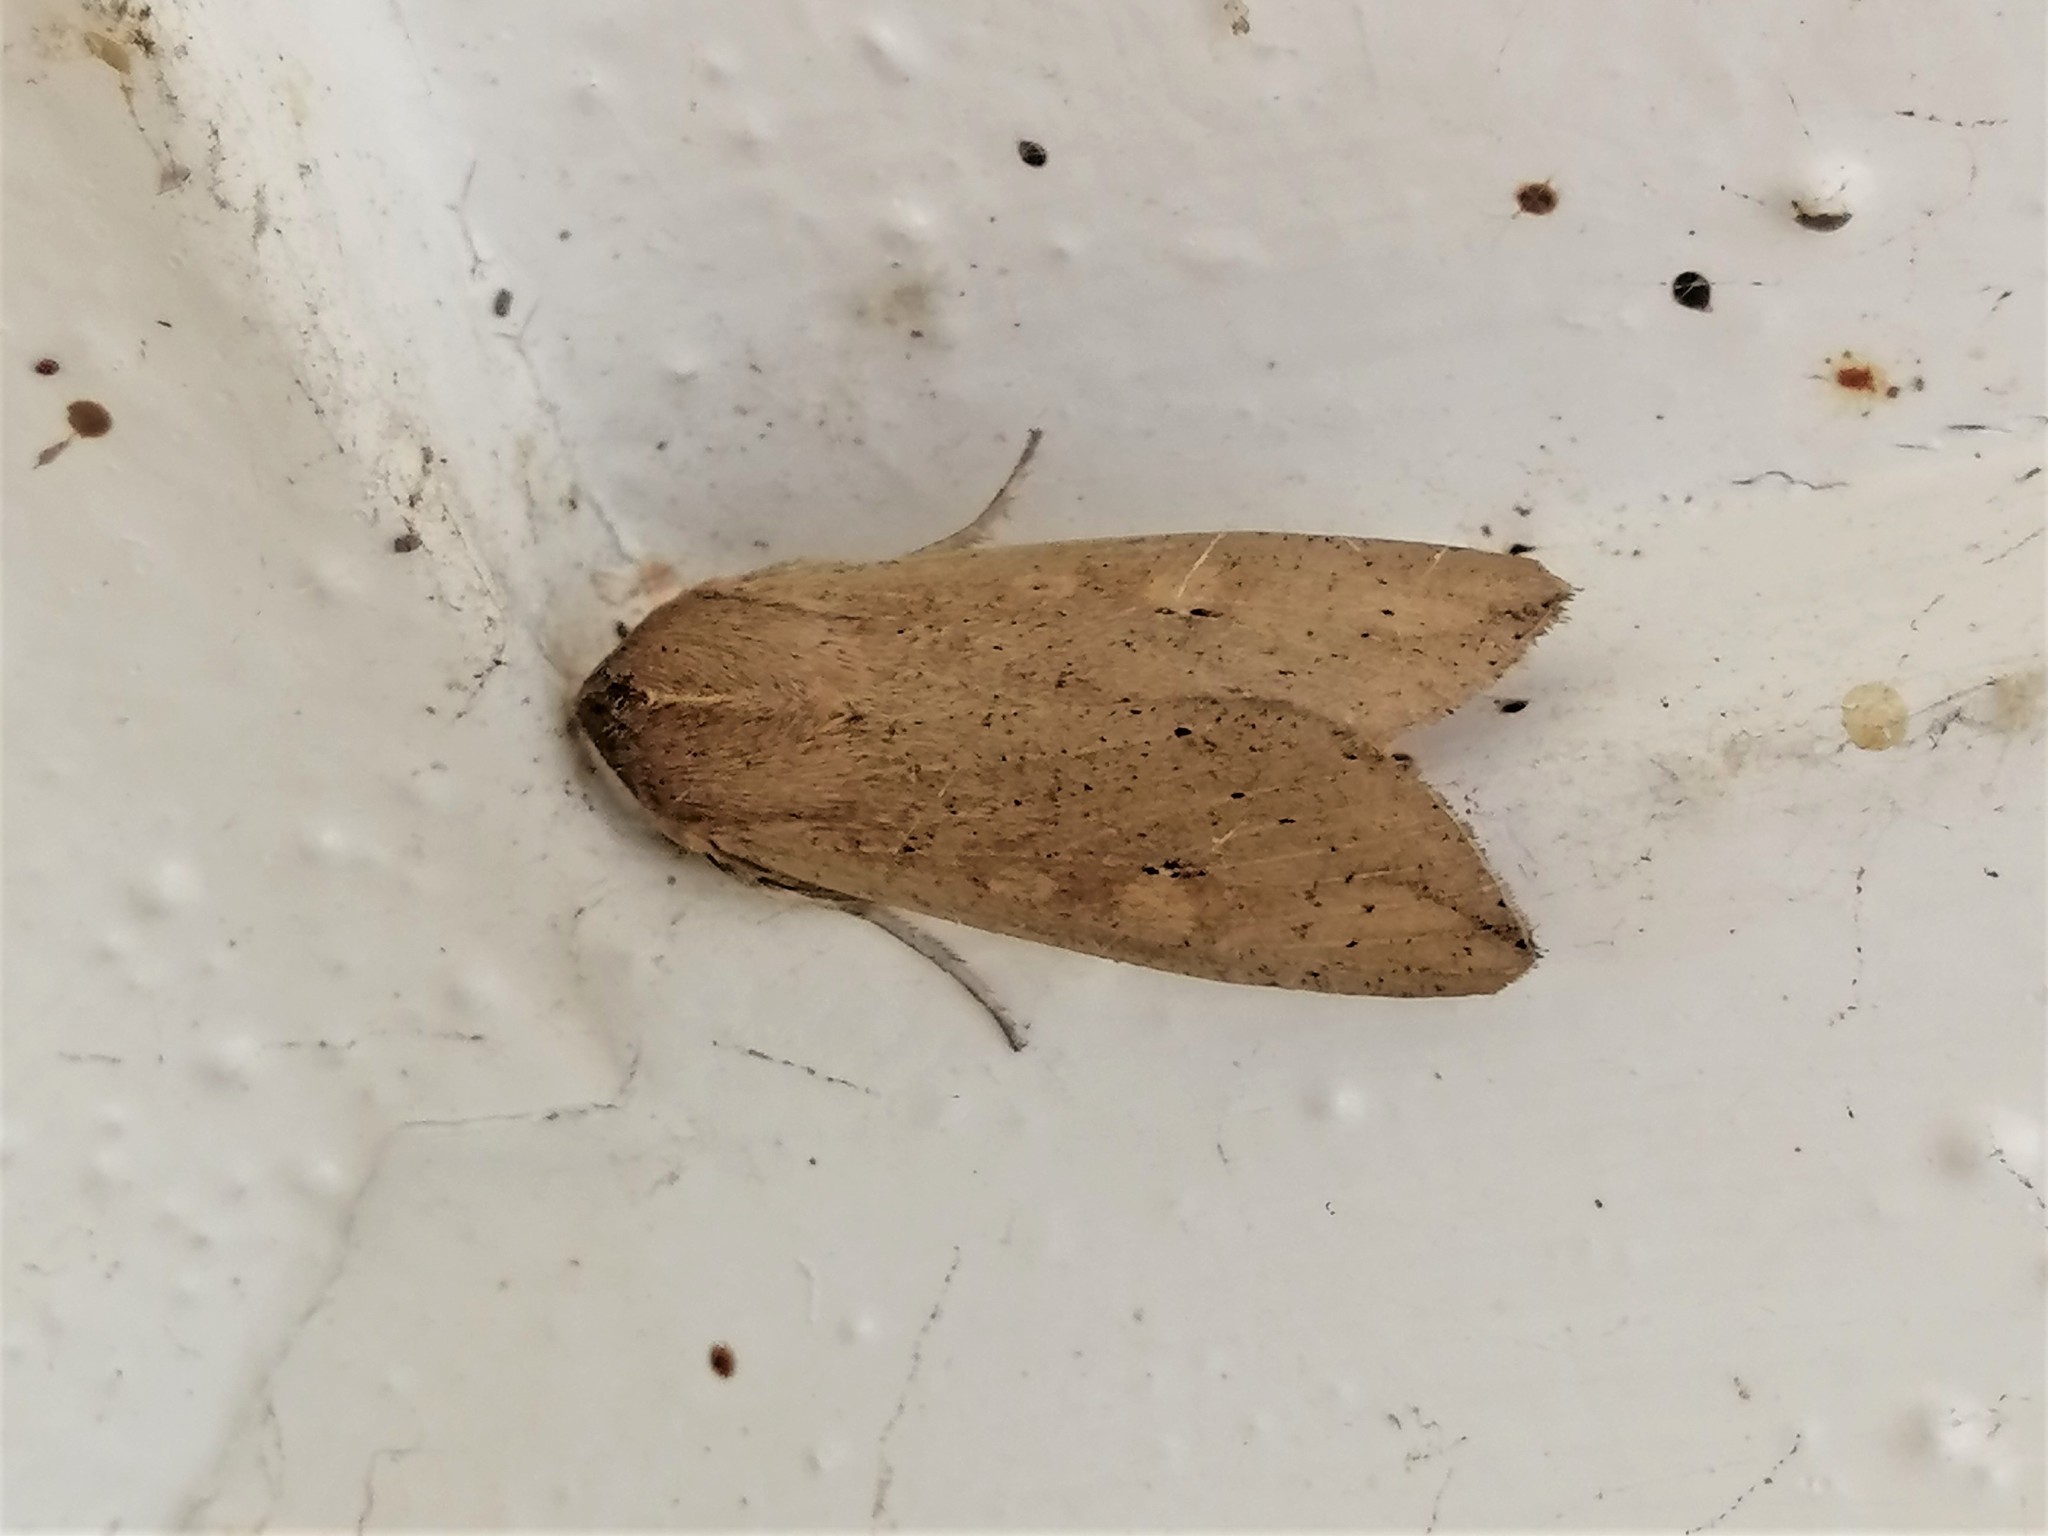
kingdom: Animalia
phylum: Arthropoda
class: Insecta
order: Lepidoptera
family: Noctuidae
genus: Mythimna
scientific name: Mythimna separata
